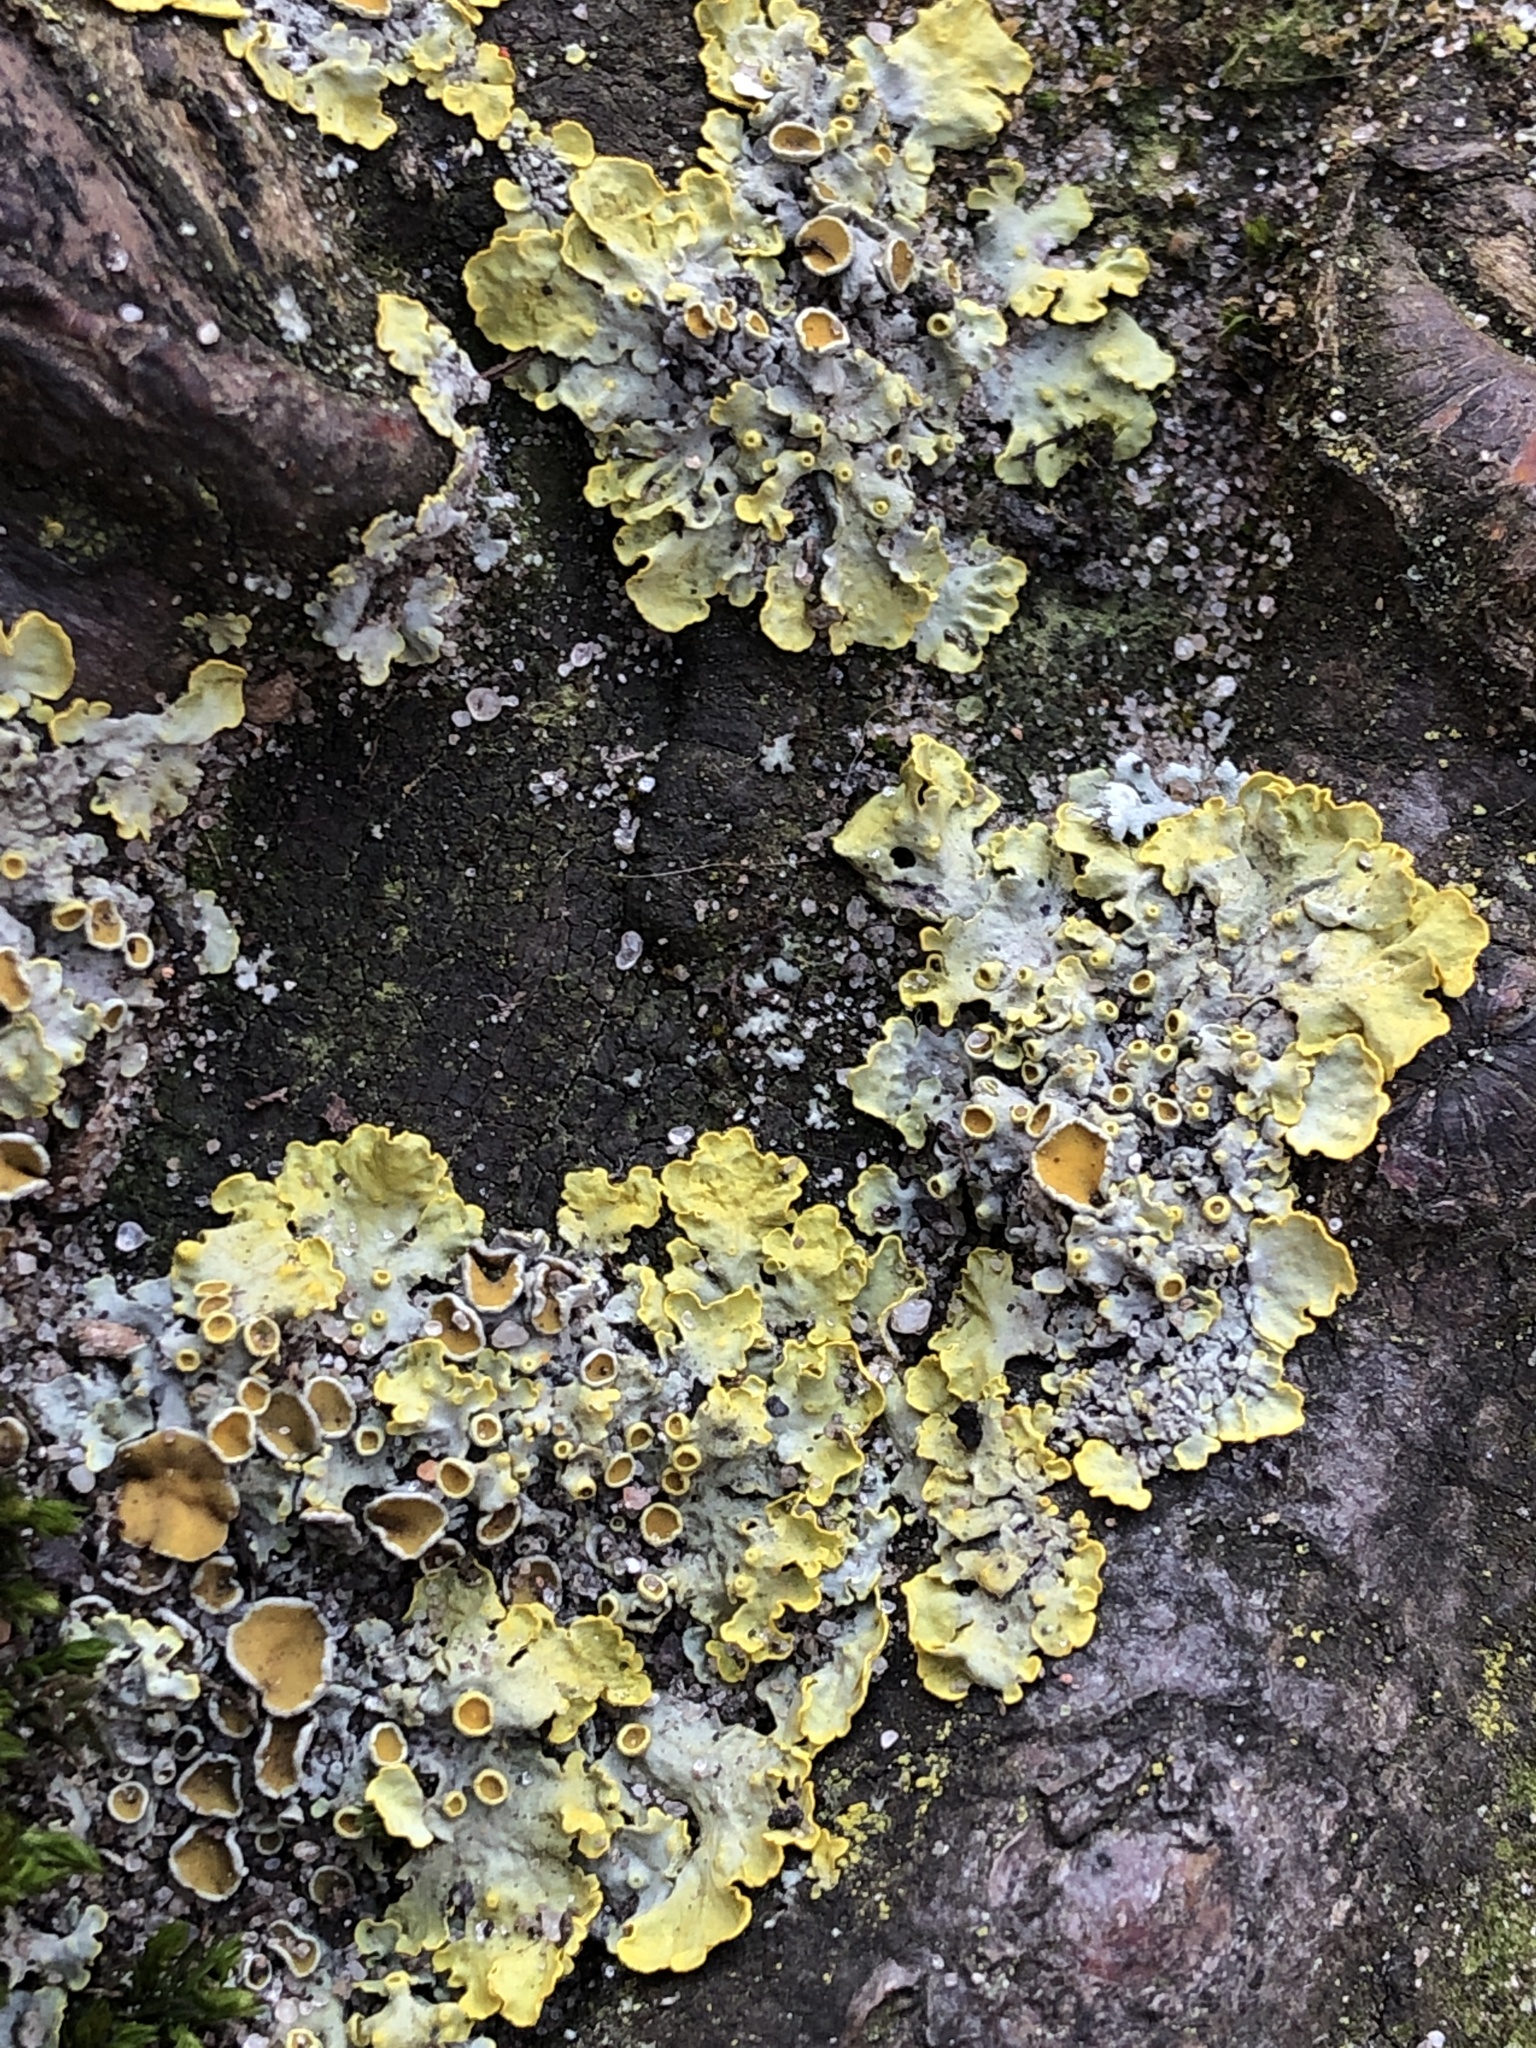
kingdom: Fungi
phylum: Ascomycota
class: Lecanoromycetes
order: Teloschistales
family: Teloschistaceae
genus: Xanthoria
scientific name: Xanthoria parietina
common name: Common orange lichen
